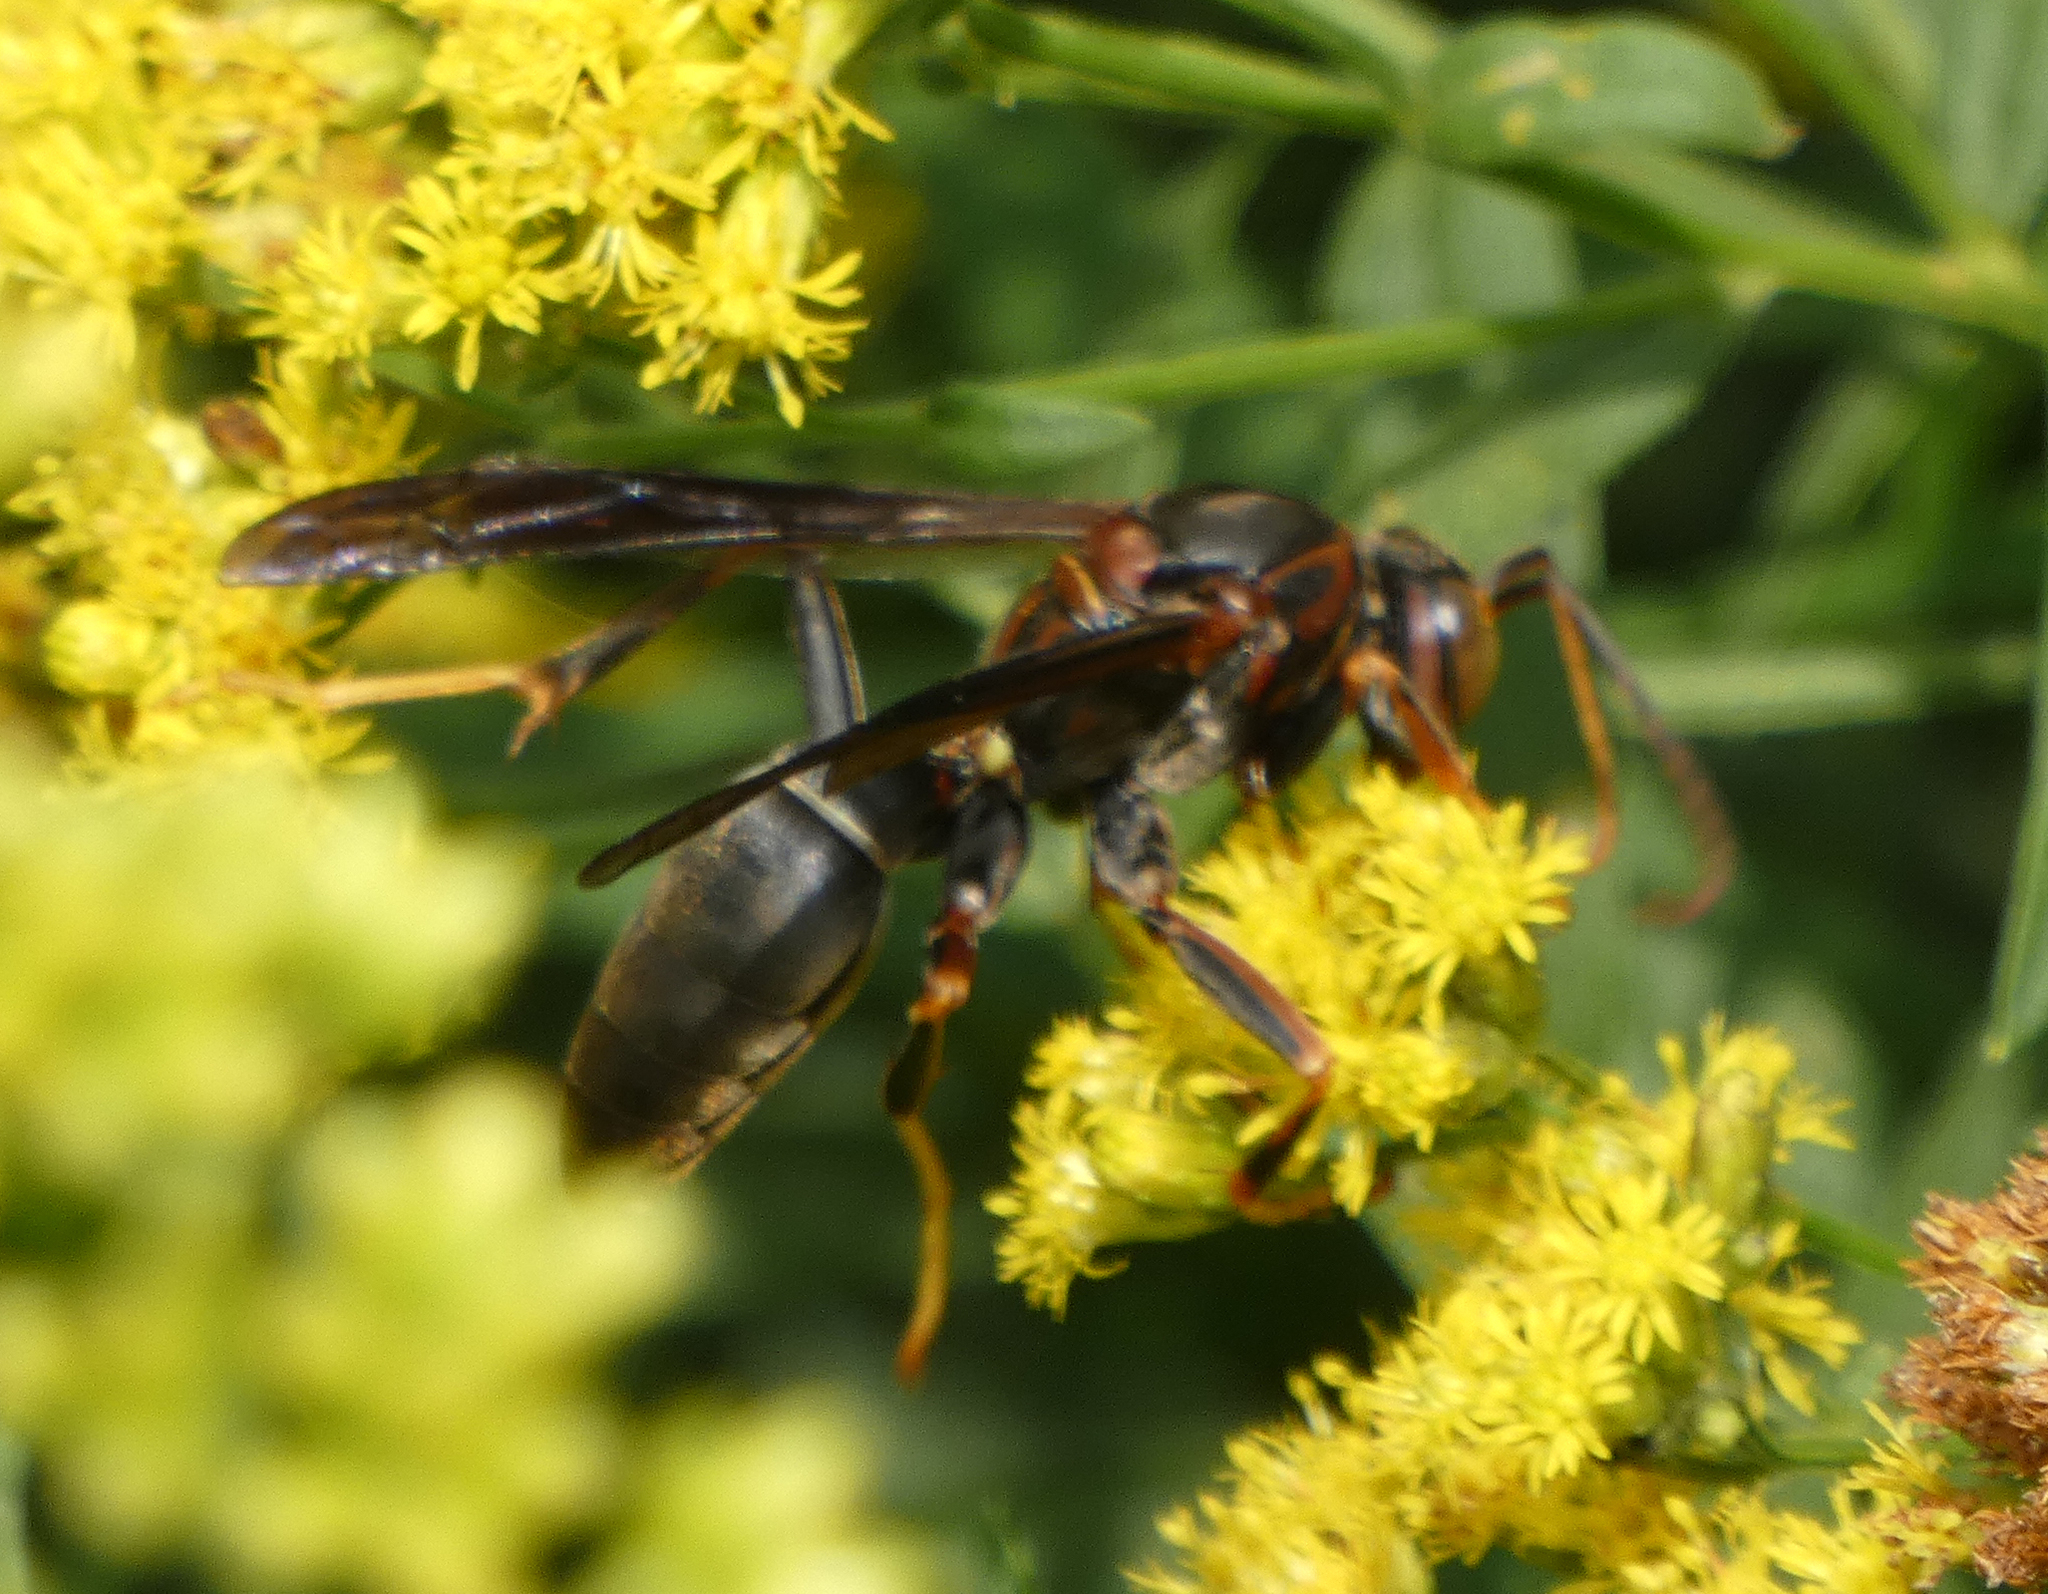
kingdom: Animalia
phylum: Arthropoda
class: Insecta
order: Hymenoptera
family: Eumenidae
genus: Polistes
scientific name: Polistes fuscatus
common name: Dark paper wasp
